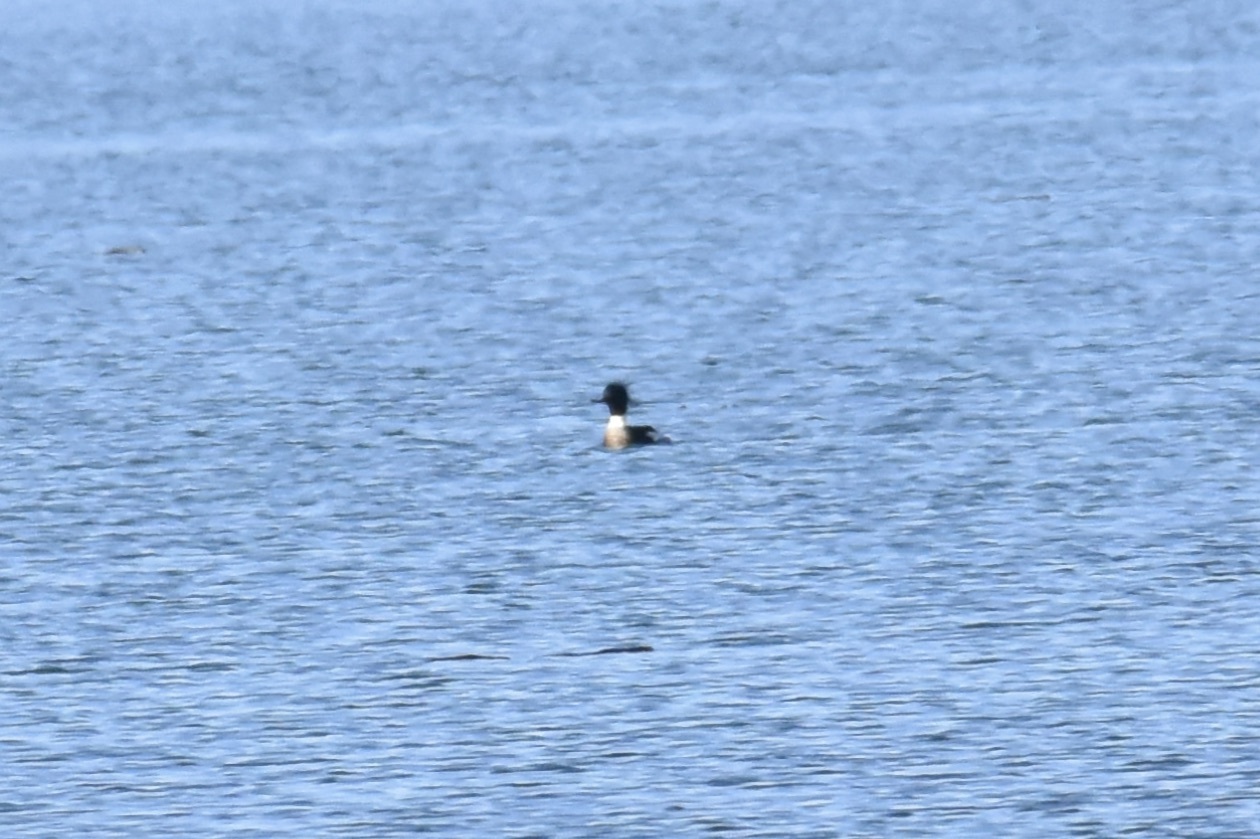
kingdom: Animalia
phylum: Chordata
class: Aves
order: Anseriformes
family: Anatidae
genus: Mergus
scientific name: Mergus serrator
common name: Red-breasted merganser
